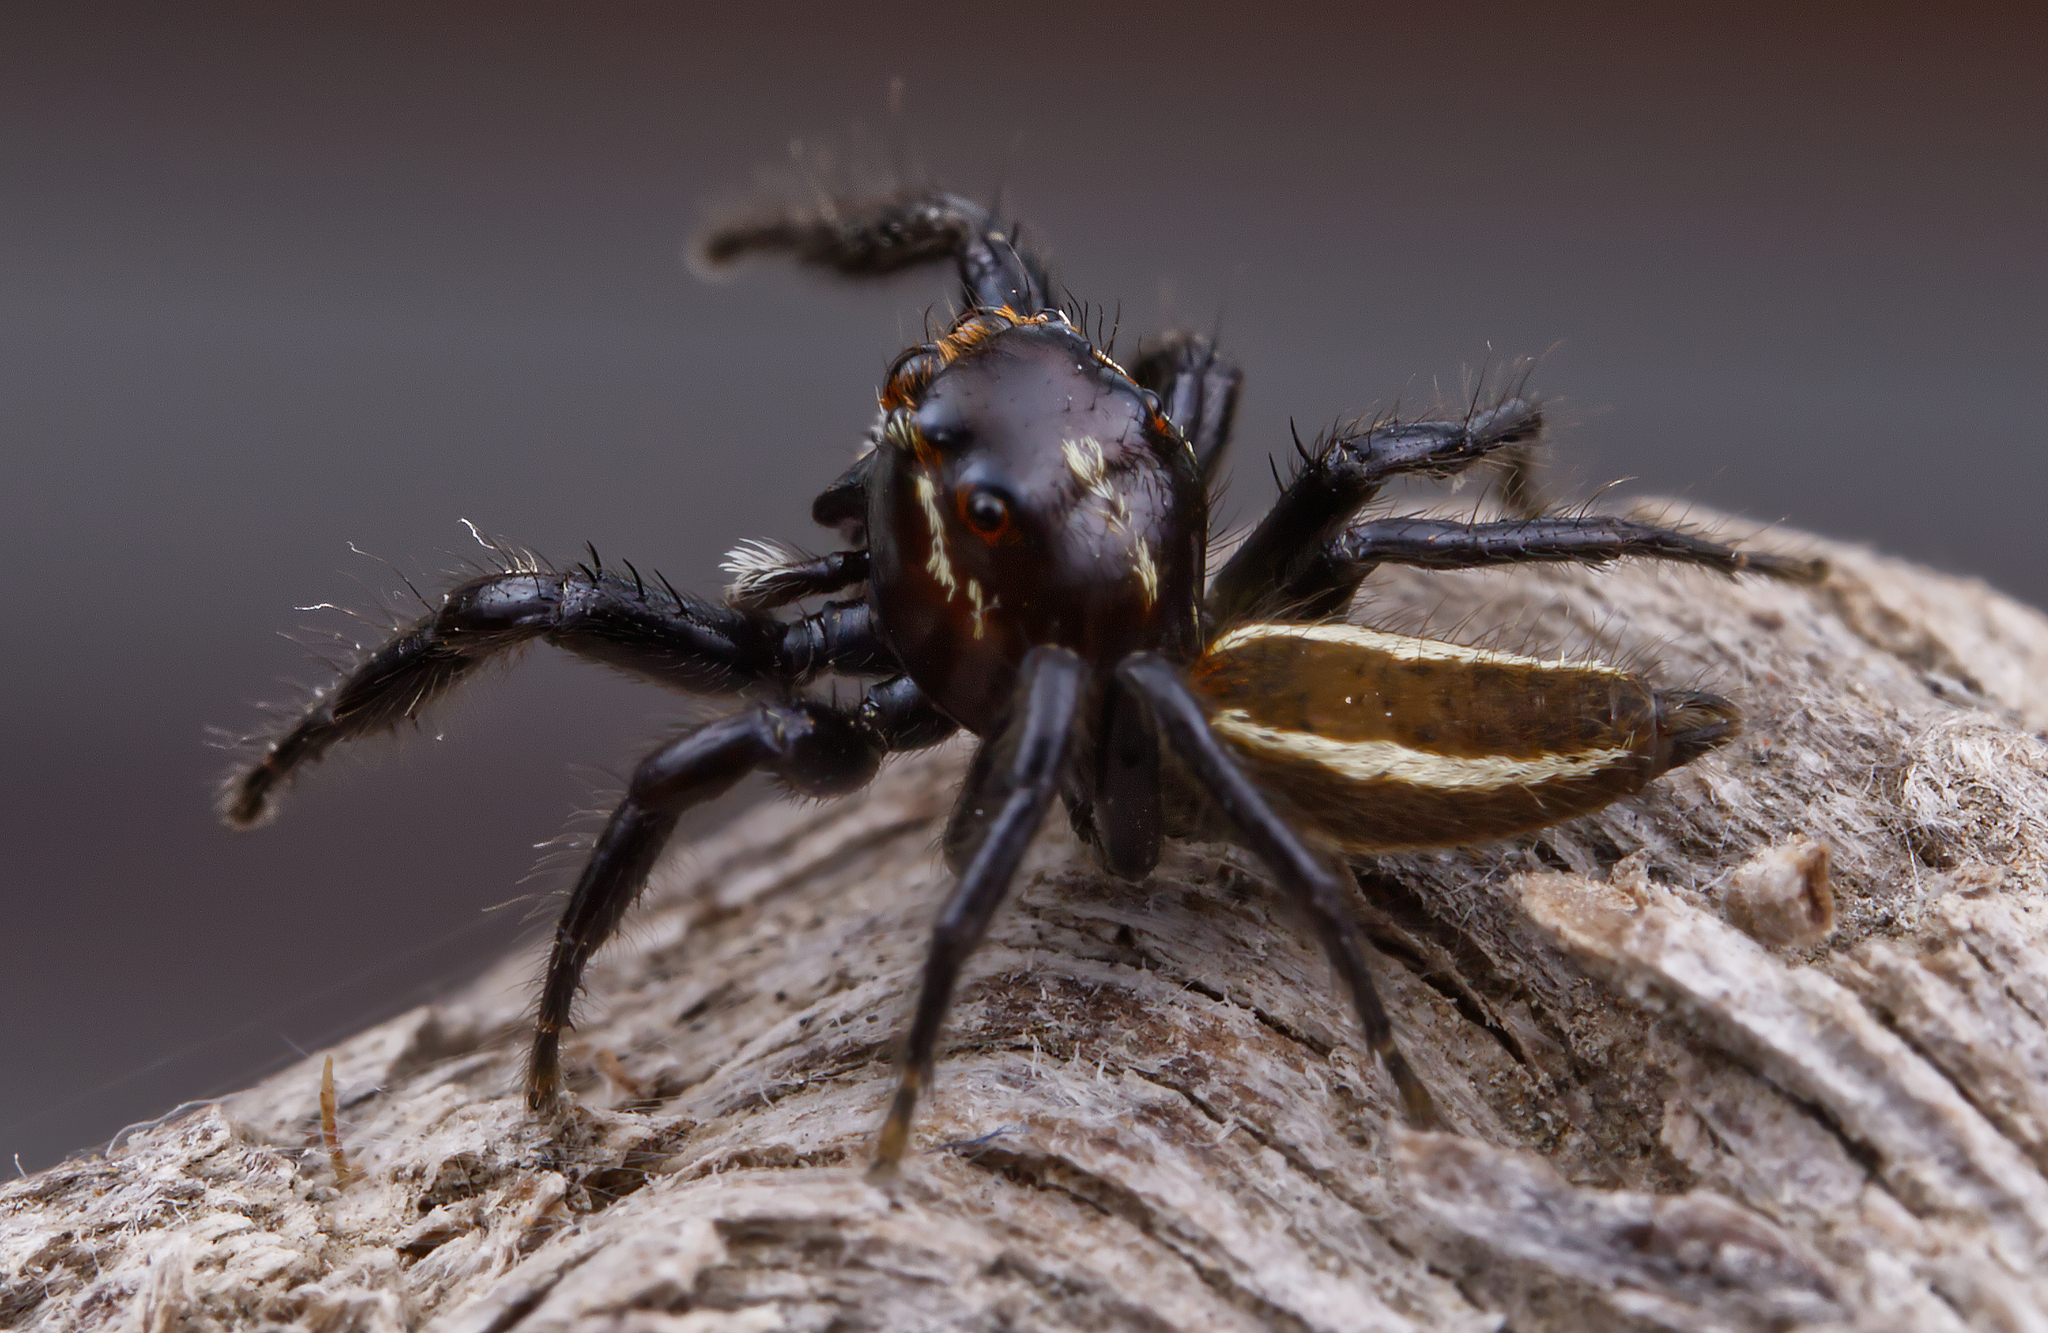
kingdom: Animalia
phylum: Arthropoda
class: Arachnida
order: Araneae
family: Salticidae
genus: Colonus
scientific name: Colonus puerperus
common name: Jumping spiders
